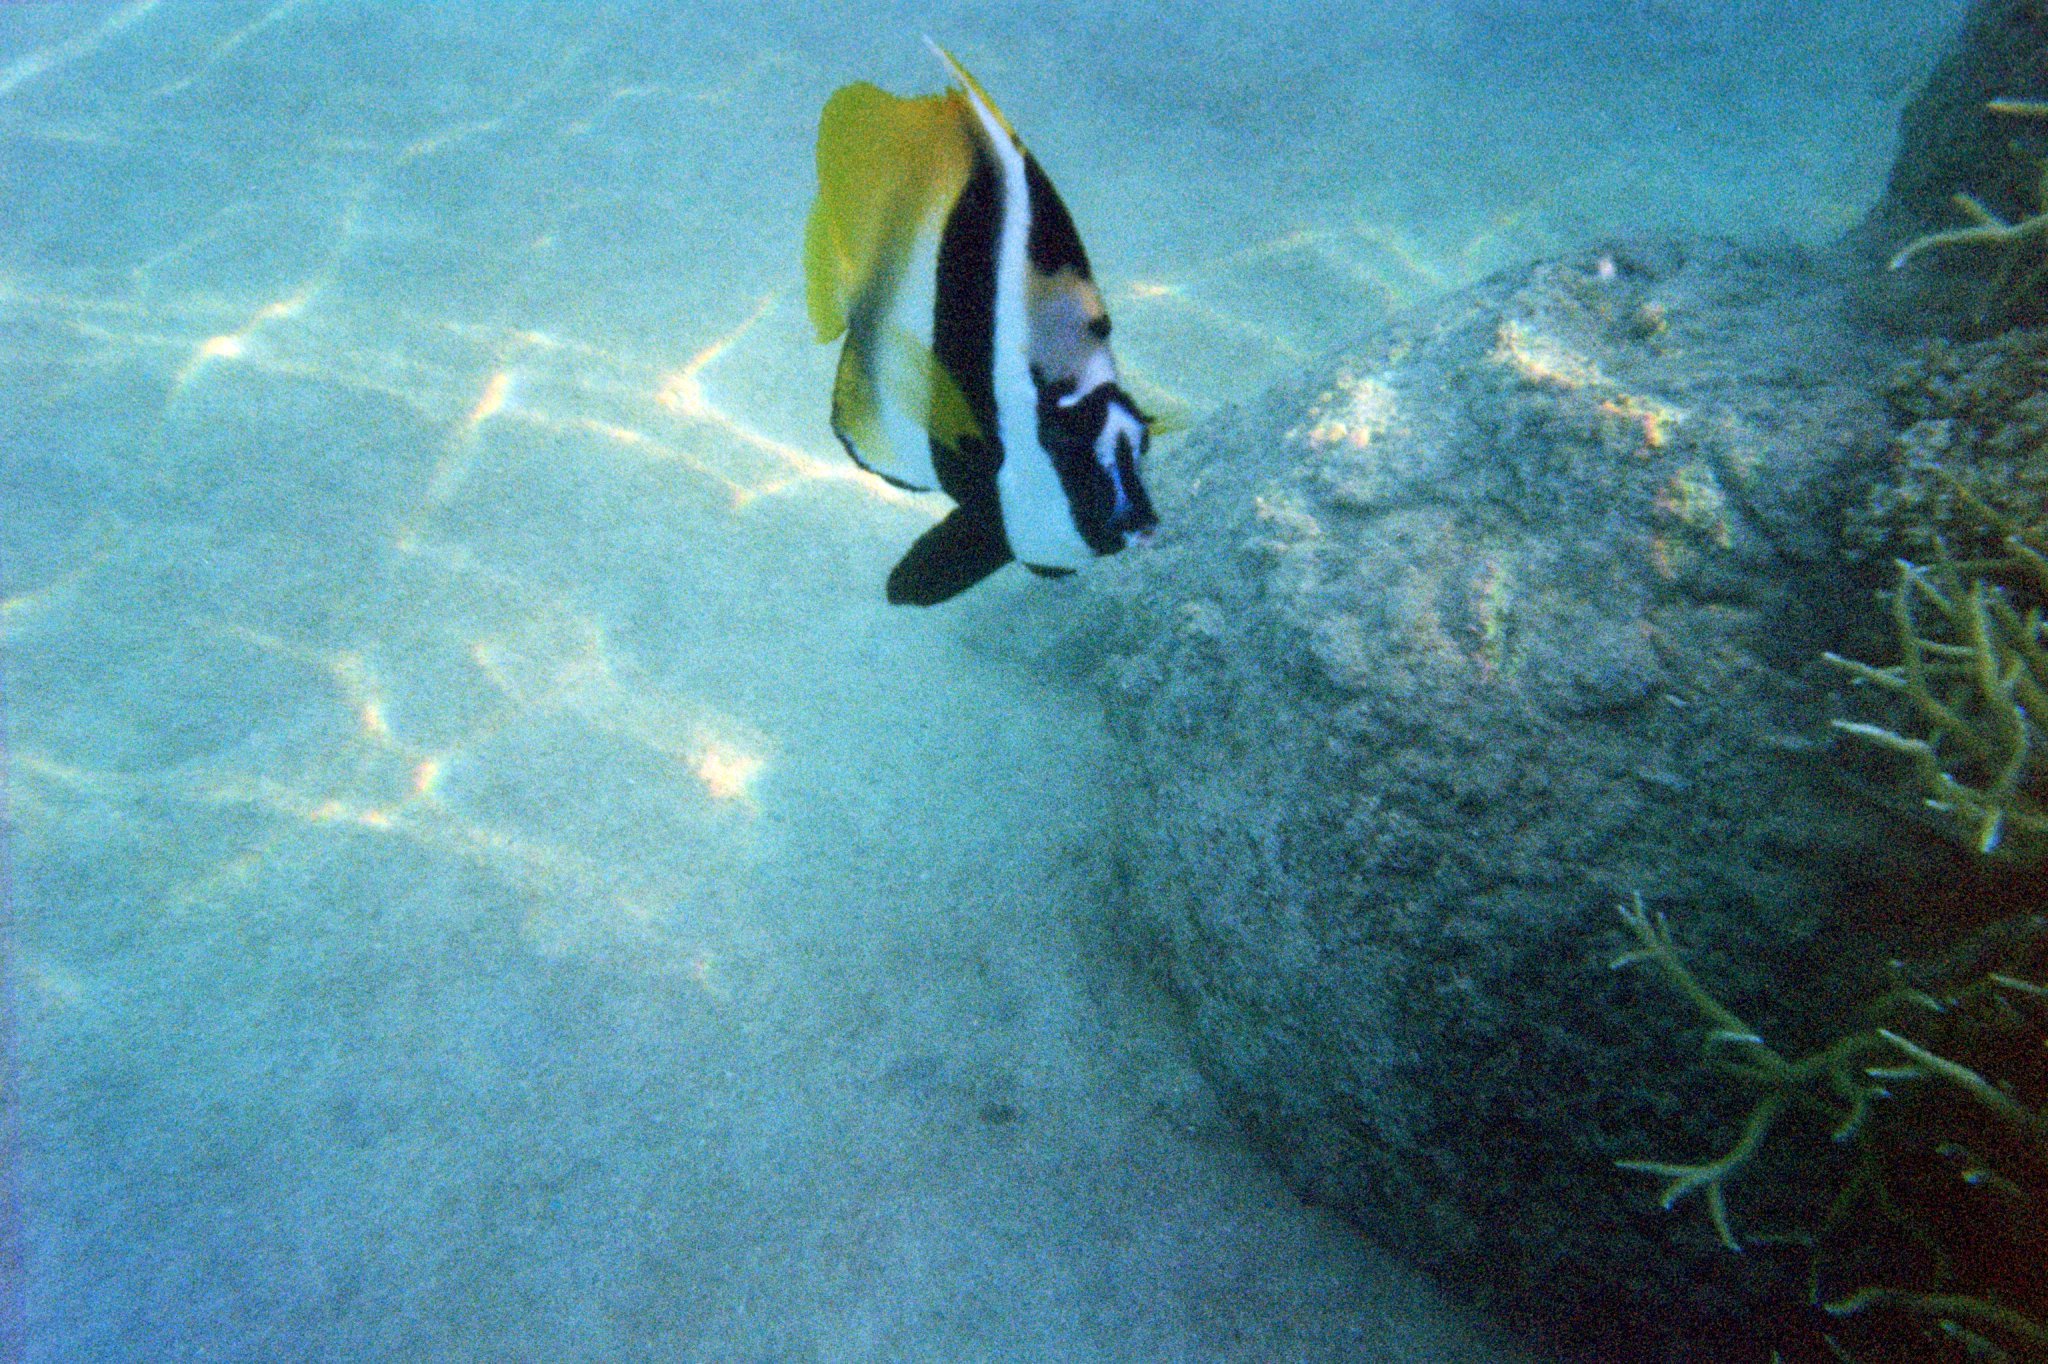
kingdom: Animalia
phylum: Chordata
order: Perciformes
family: Chaetodontidae
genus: Heniochus
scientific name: Heniochus monoceros
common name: Masked bannerfish
